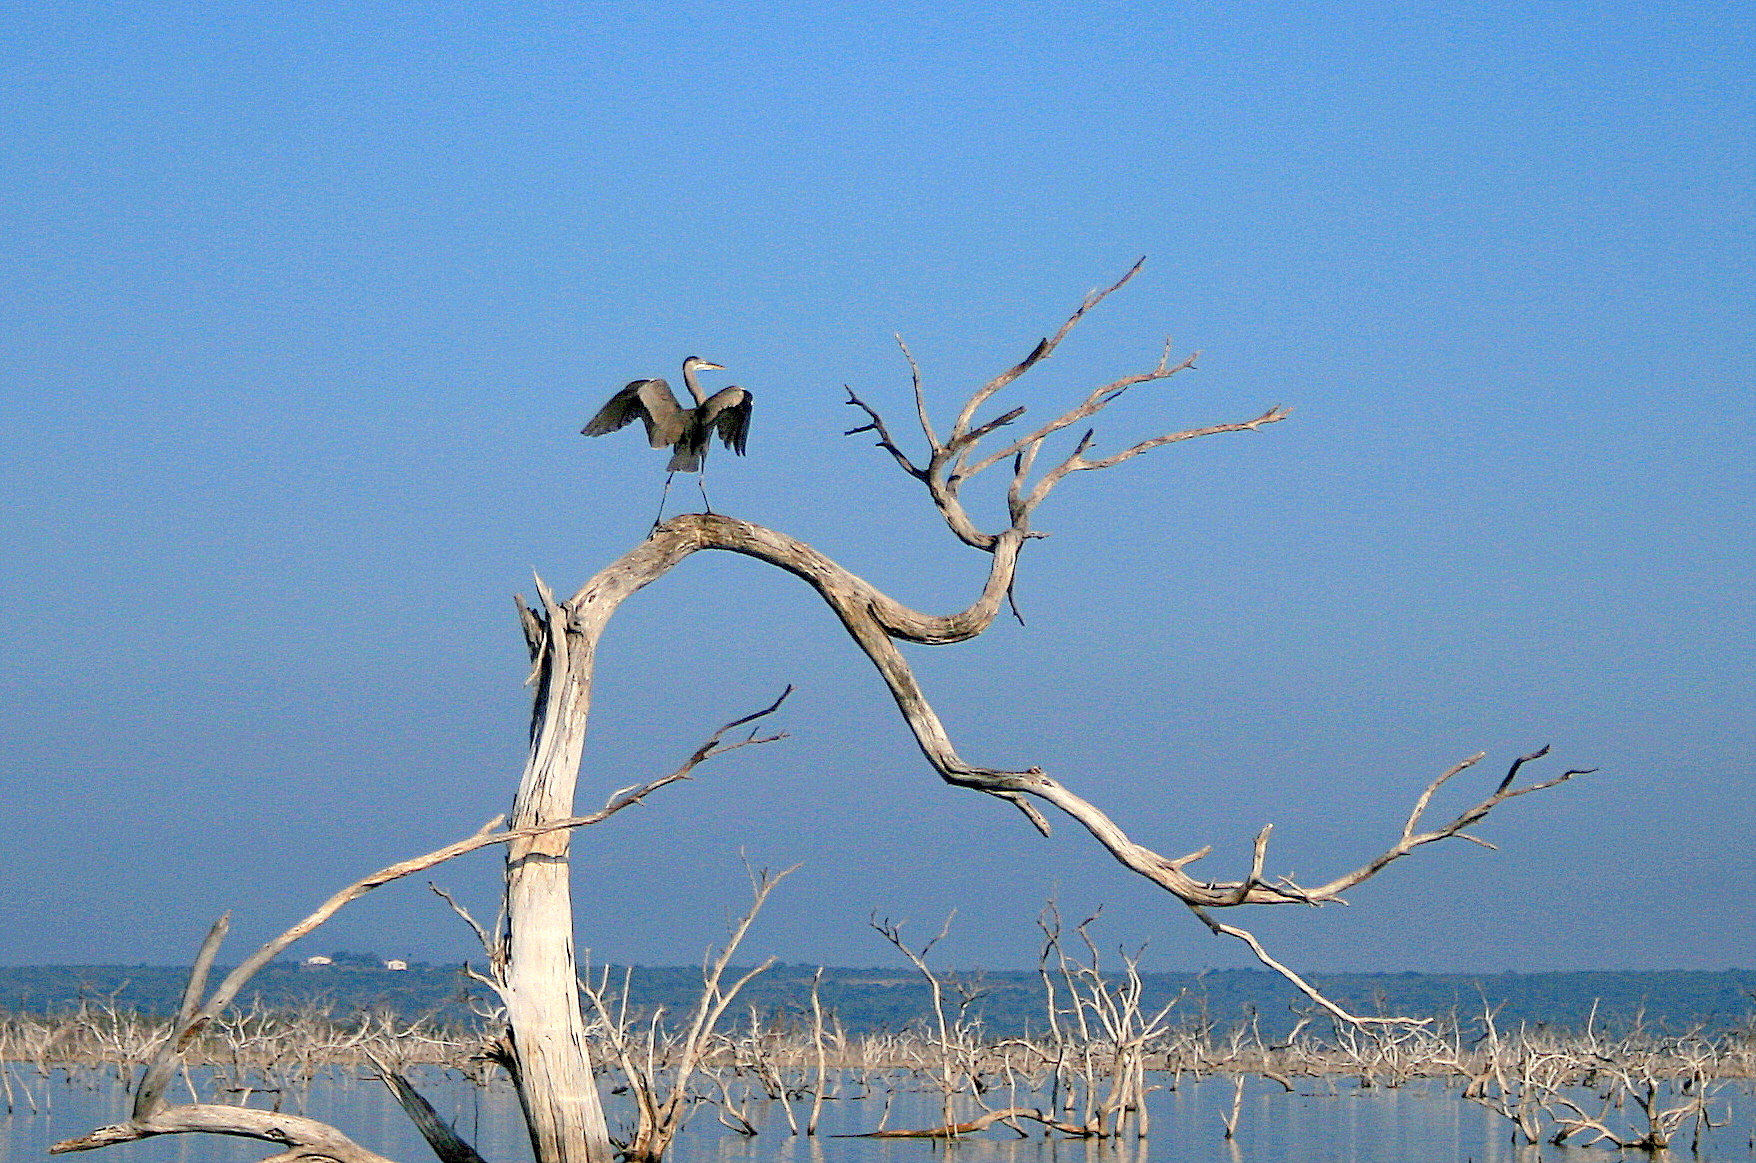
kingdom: Animalia
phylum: Chordata
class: Aves
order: Pelecaniformes
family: Ardeidae
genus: Ardea
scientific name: Ardea herodias
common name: Great blue heron
